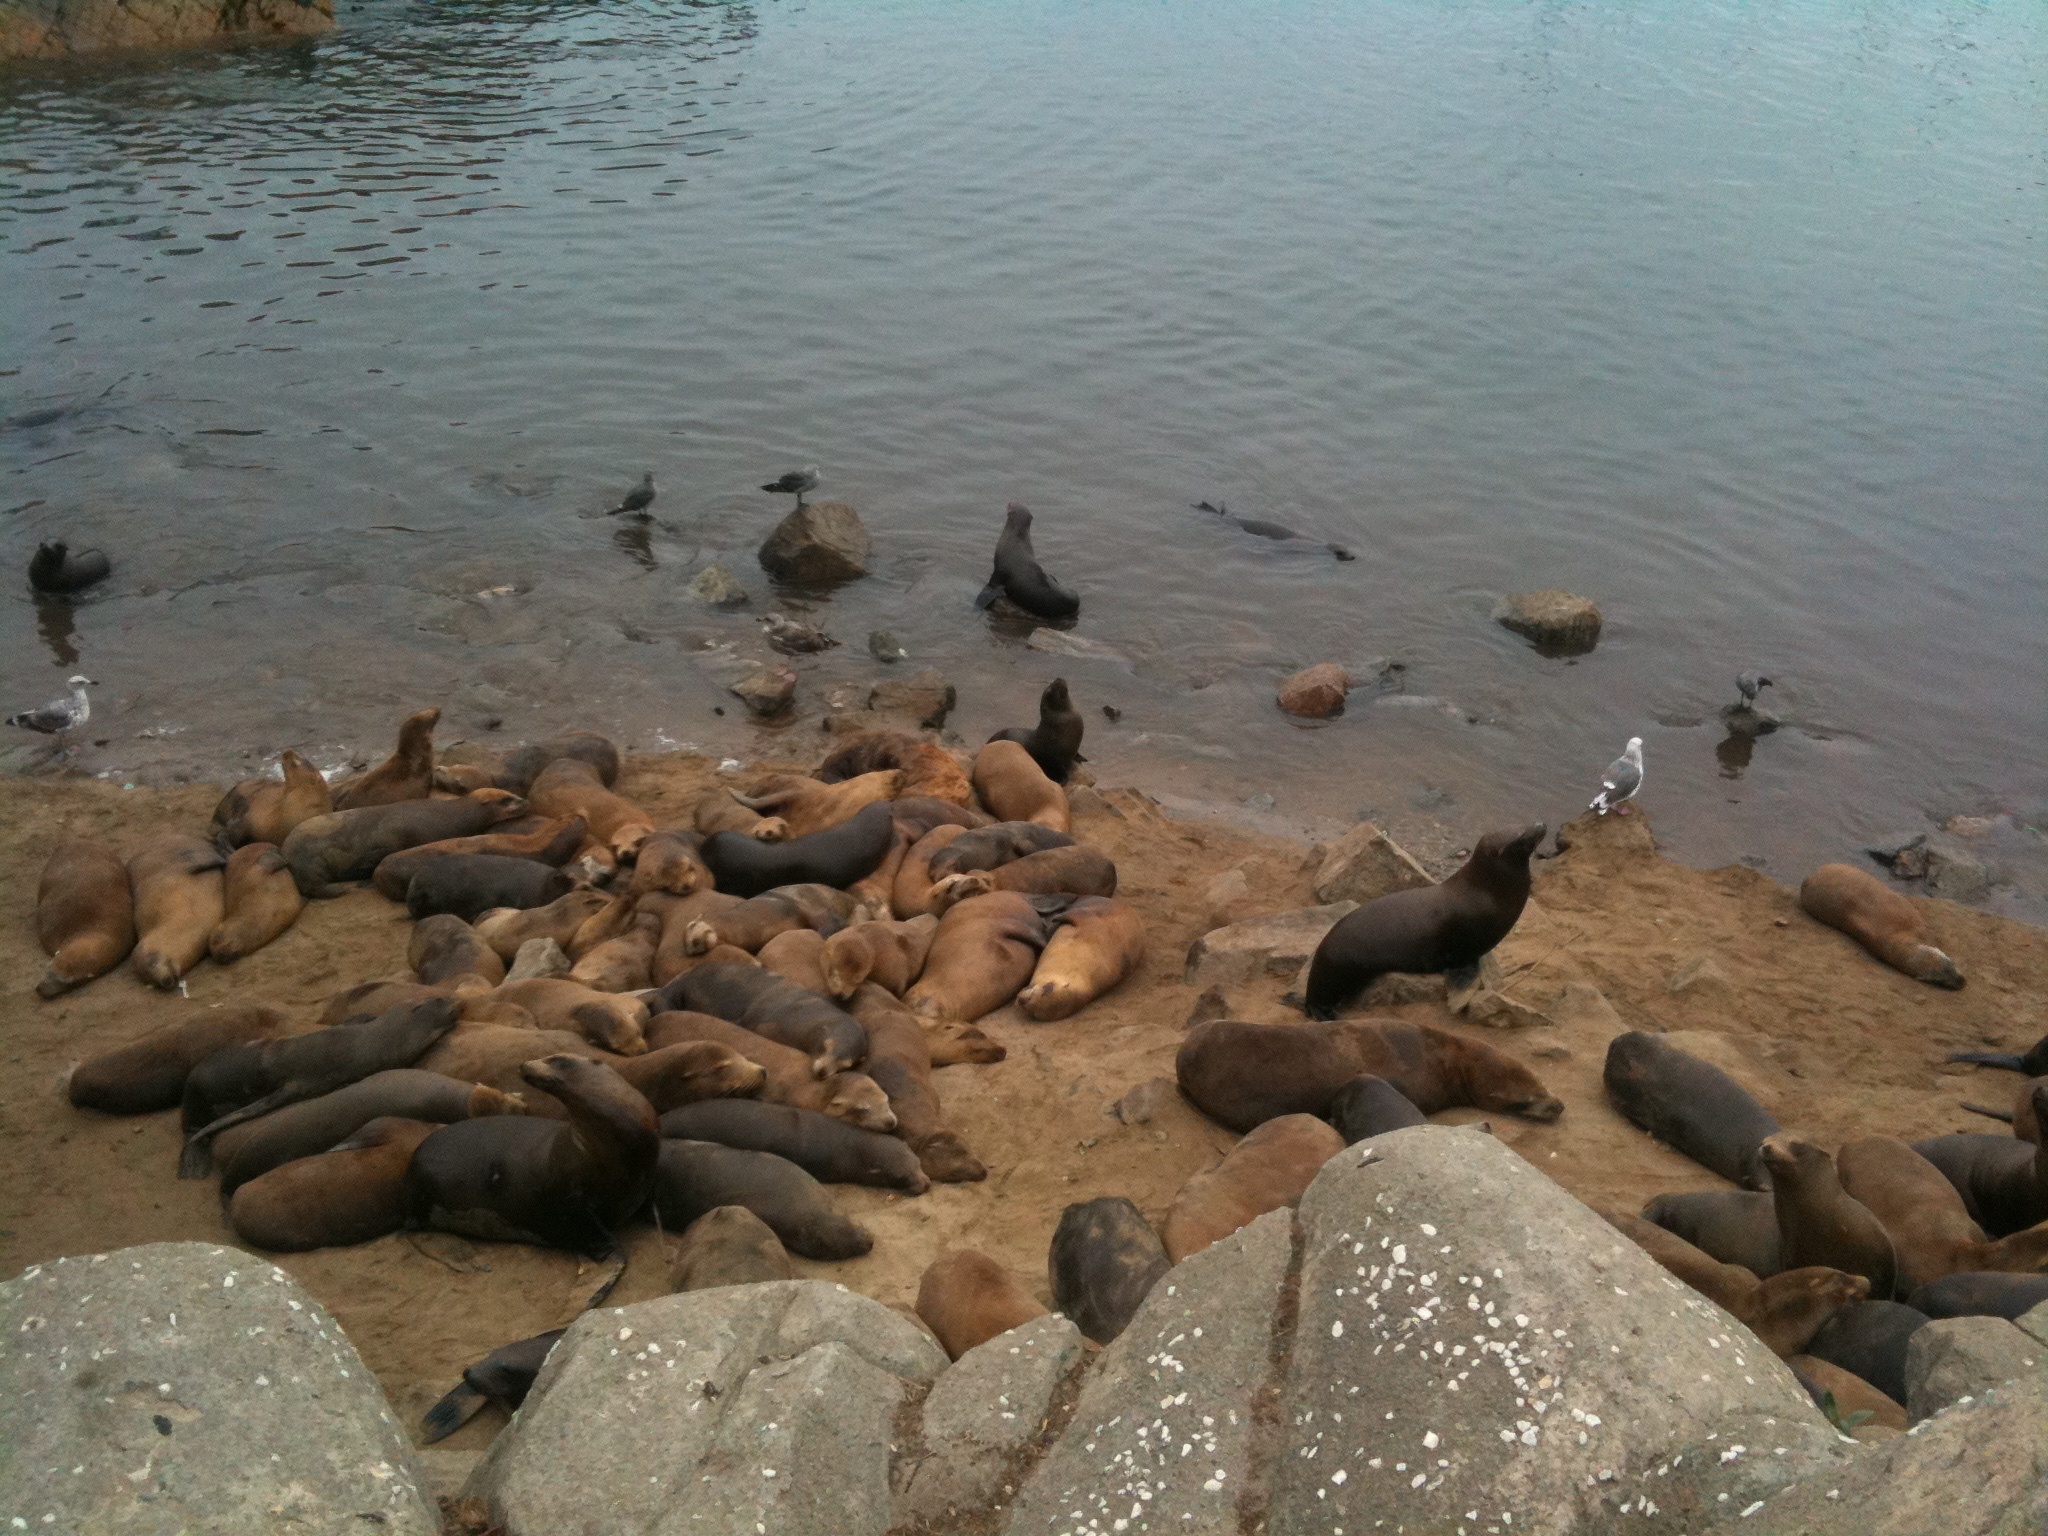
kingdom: Animalia
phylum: Chordata
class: Mammalia
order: Carnivora
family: Otariidae
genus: Zalophus
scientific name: Zalophus californianus
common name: California sea lion
